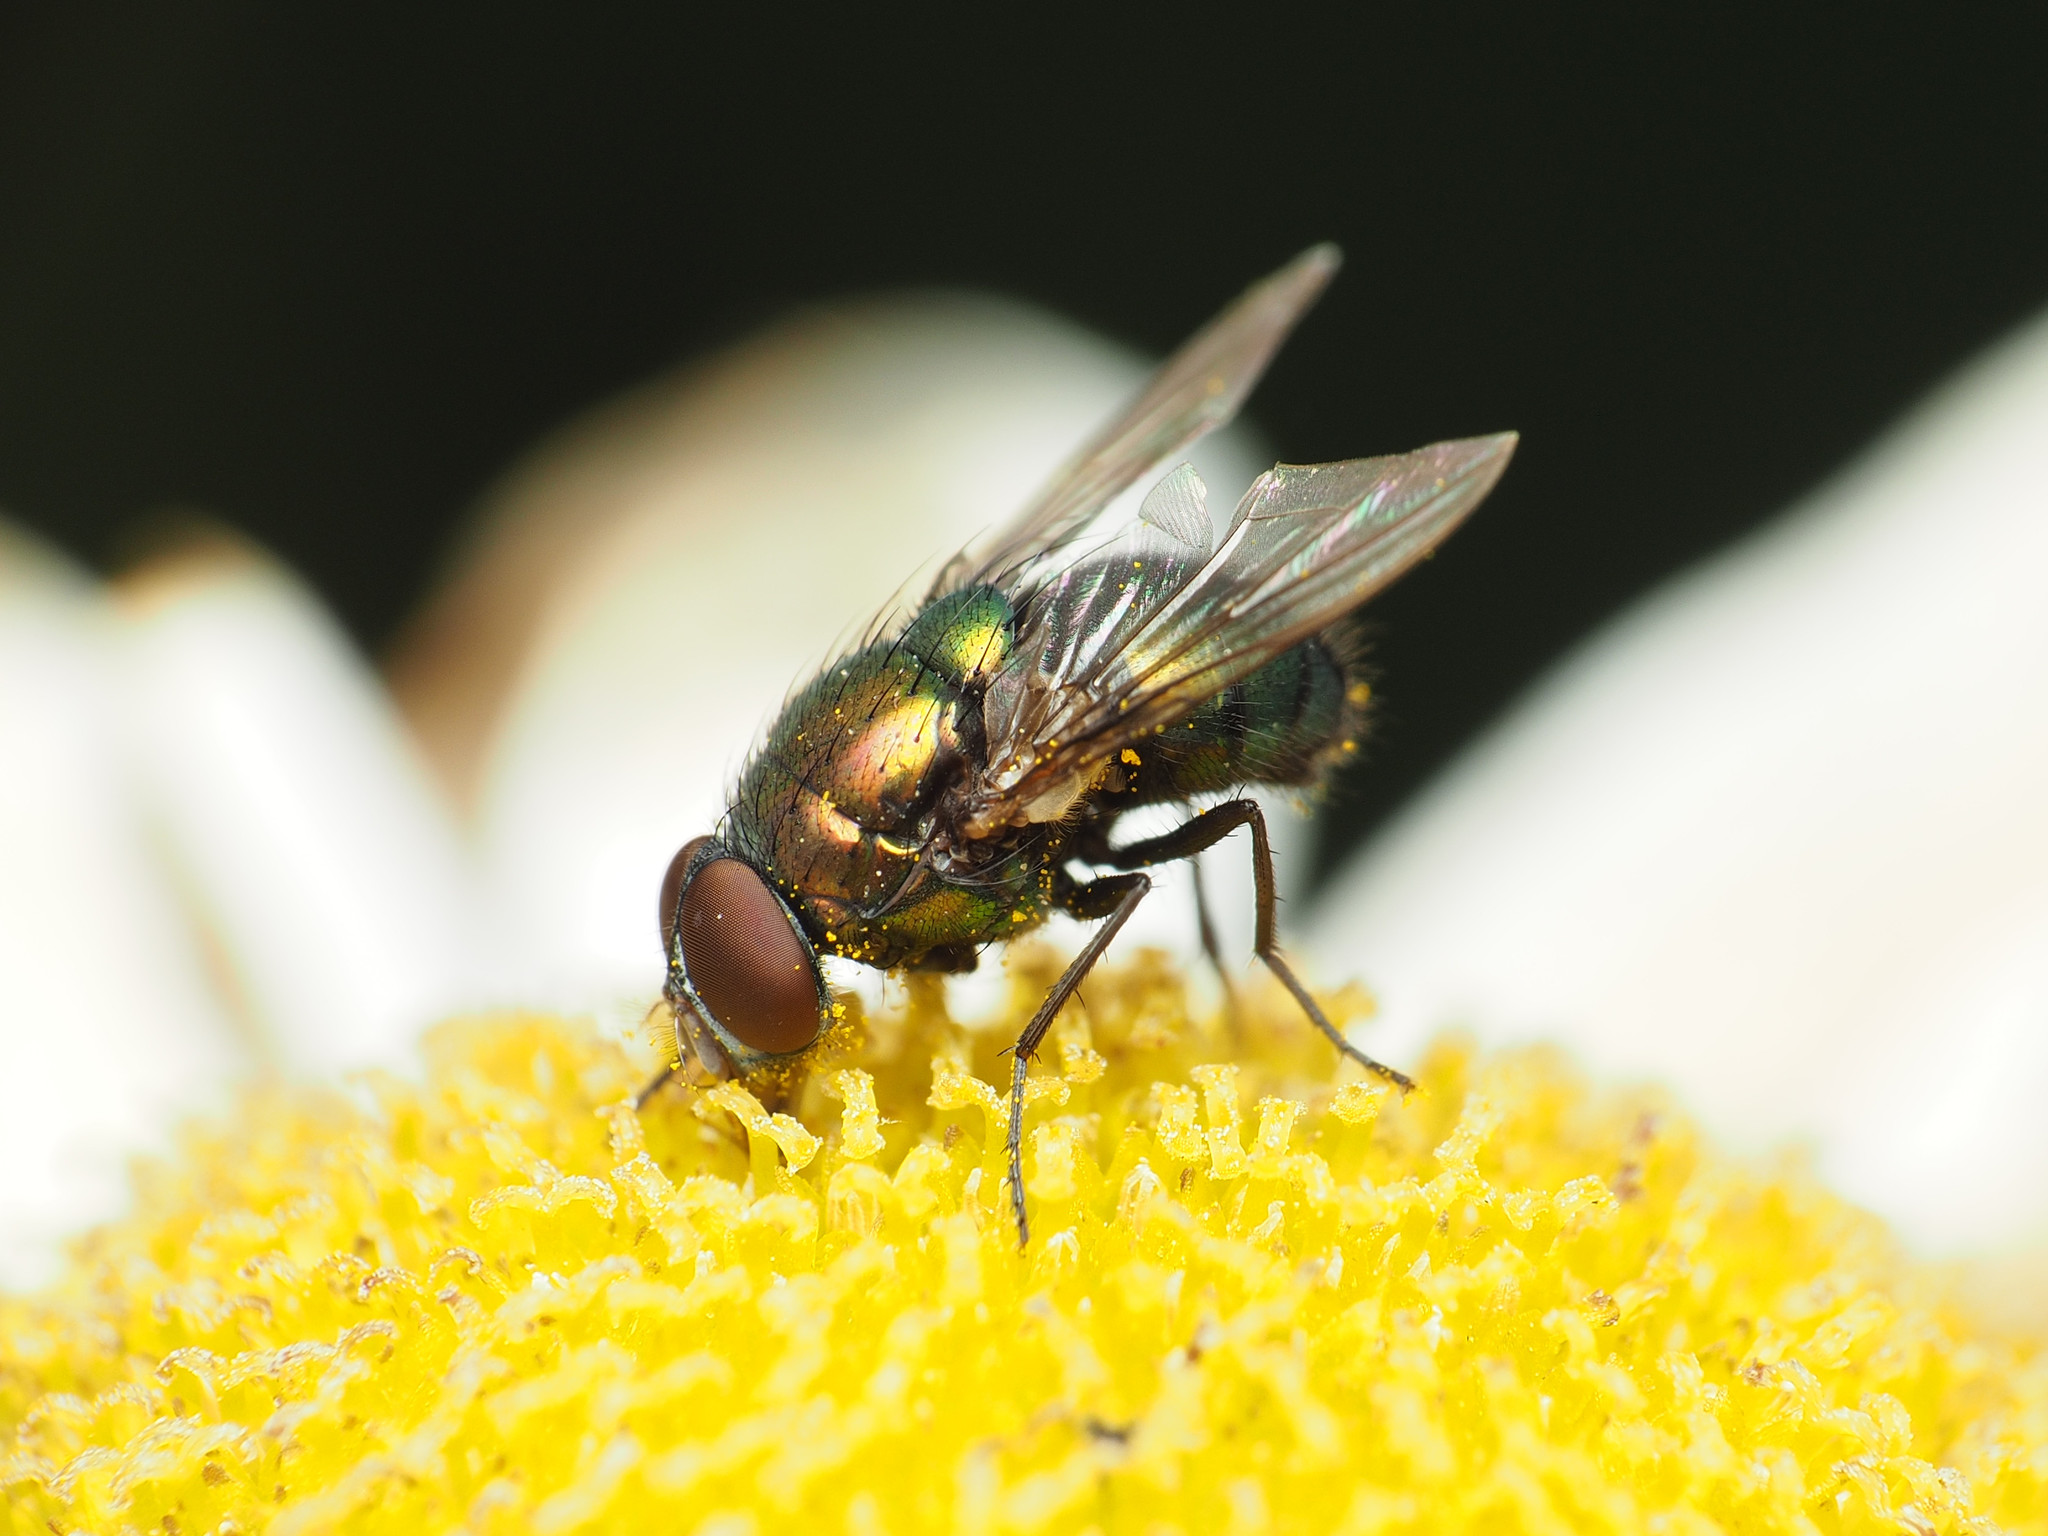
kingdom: Animalia
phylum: Arthropoda
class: Insecta
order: Diptera
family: Calliphoridae
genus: Lucilia
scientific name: Lucilia caeruleiviridis
